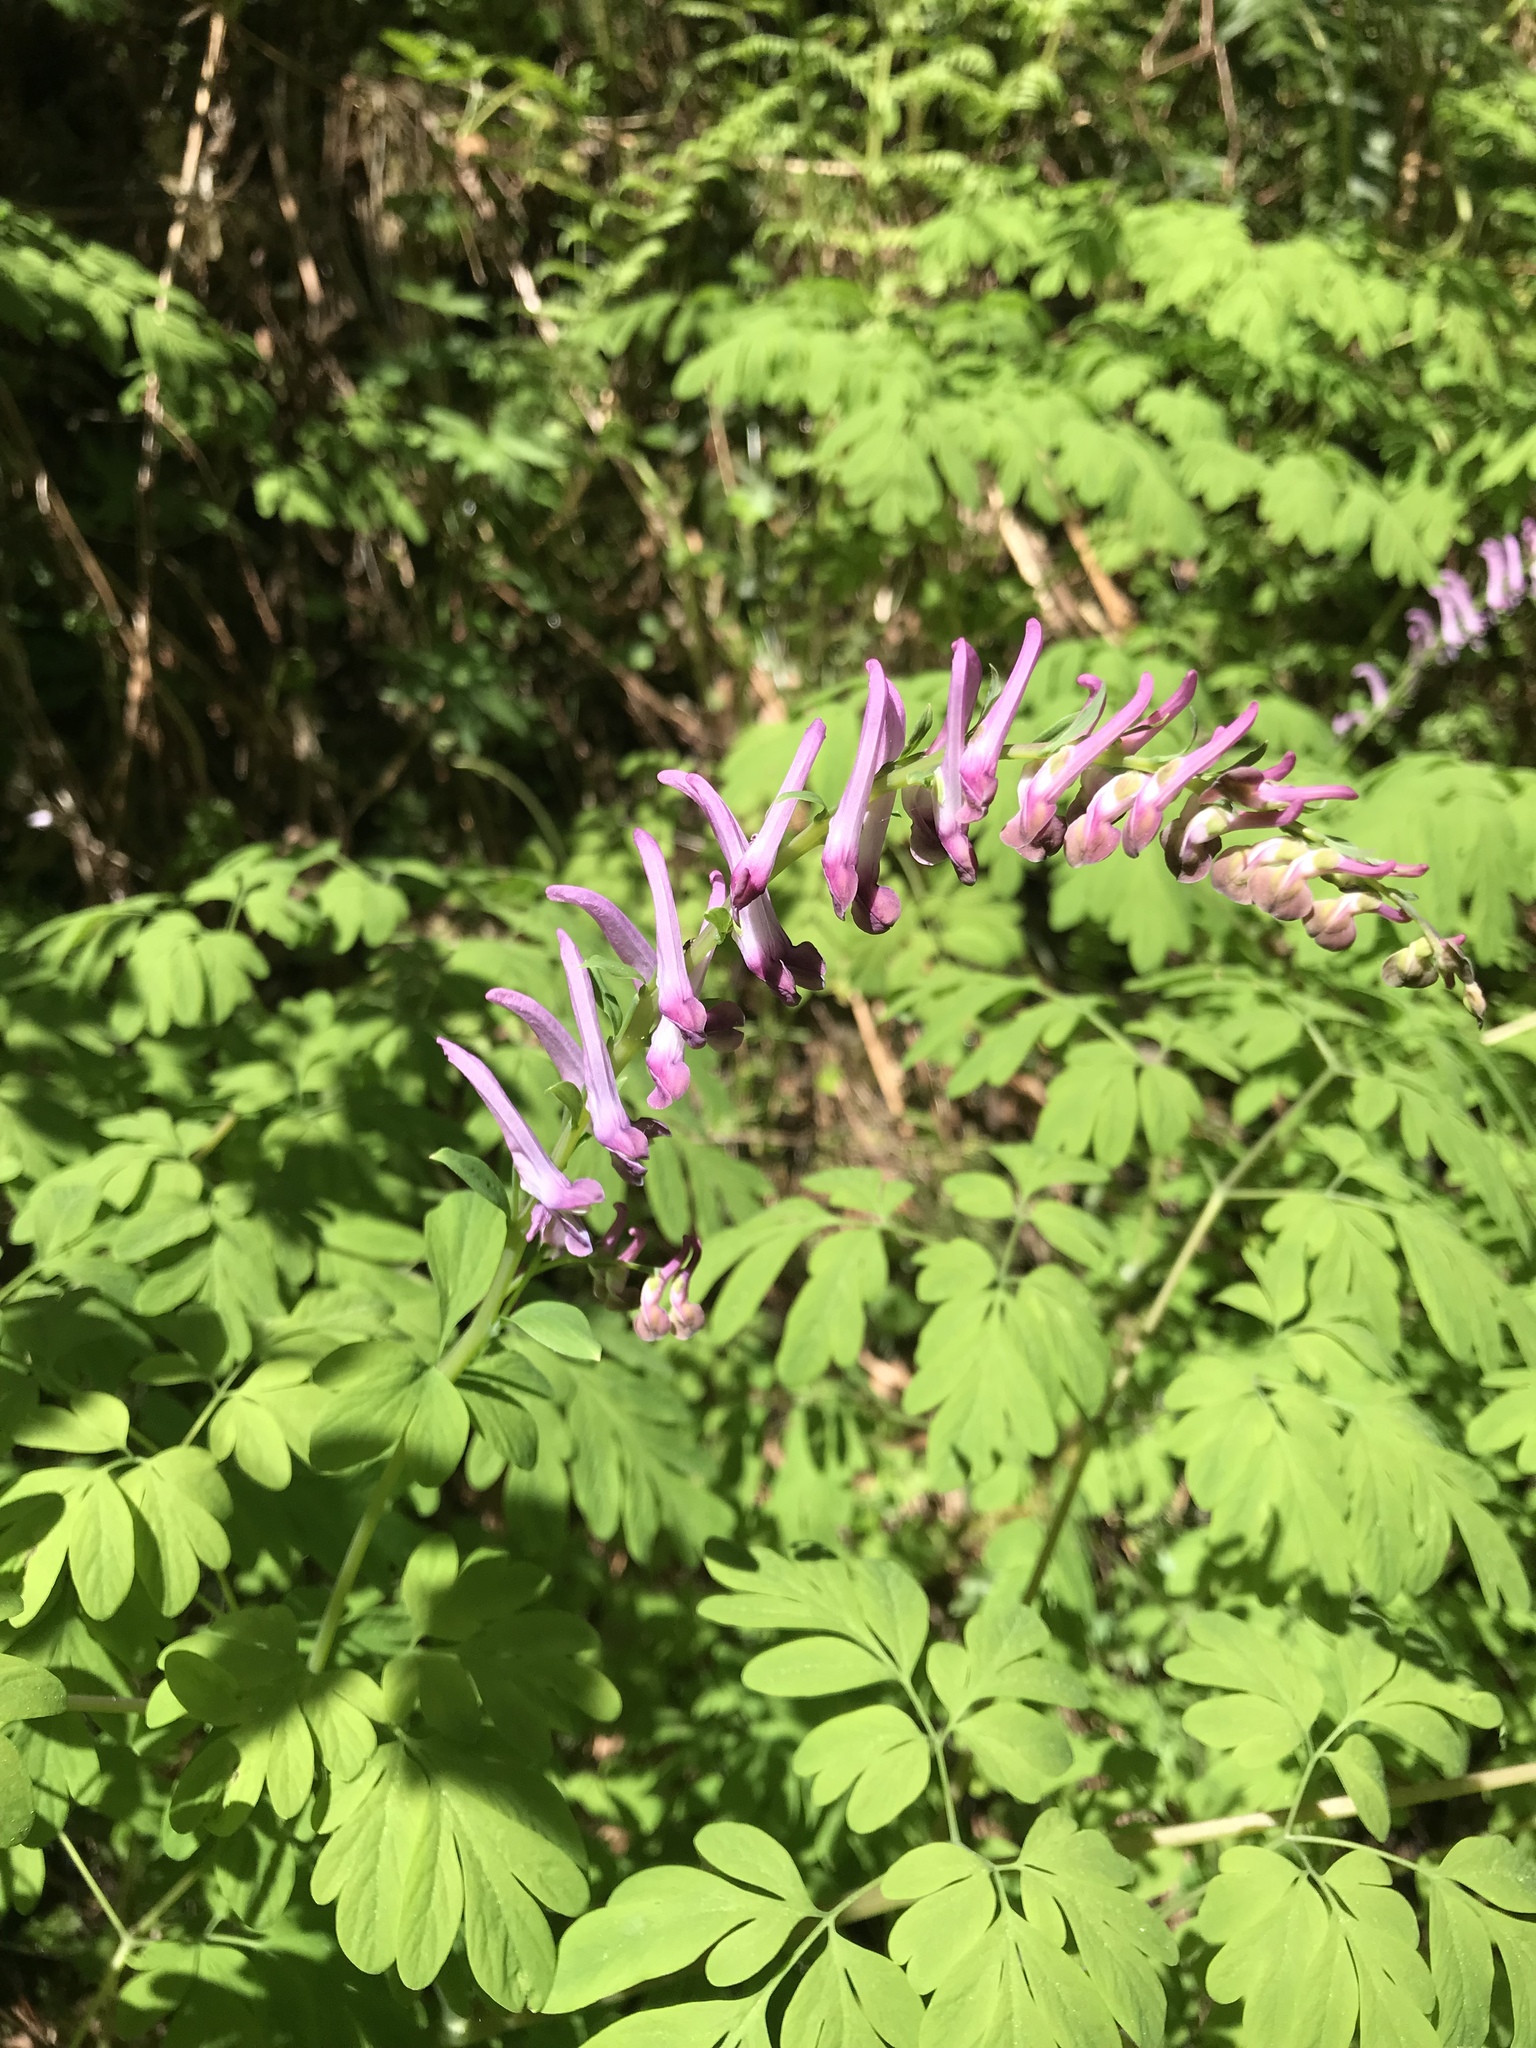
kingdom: Plantae
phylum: Tracheophyta
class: Magnoliopsida
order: Ranunculales
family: Papaveraceae
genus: Corydalis
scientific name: Corydalis scouleri
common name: Scouler's corydalis
